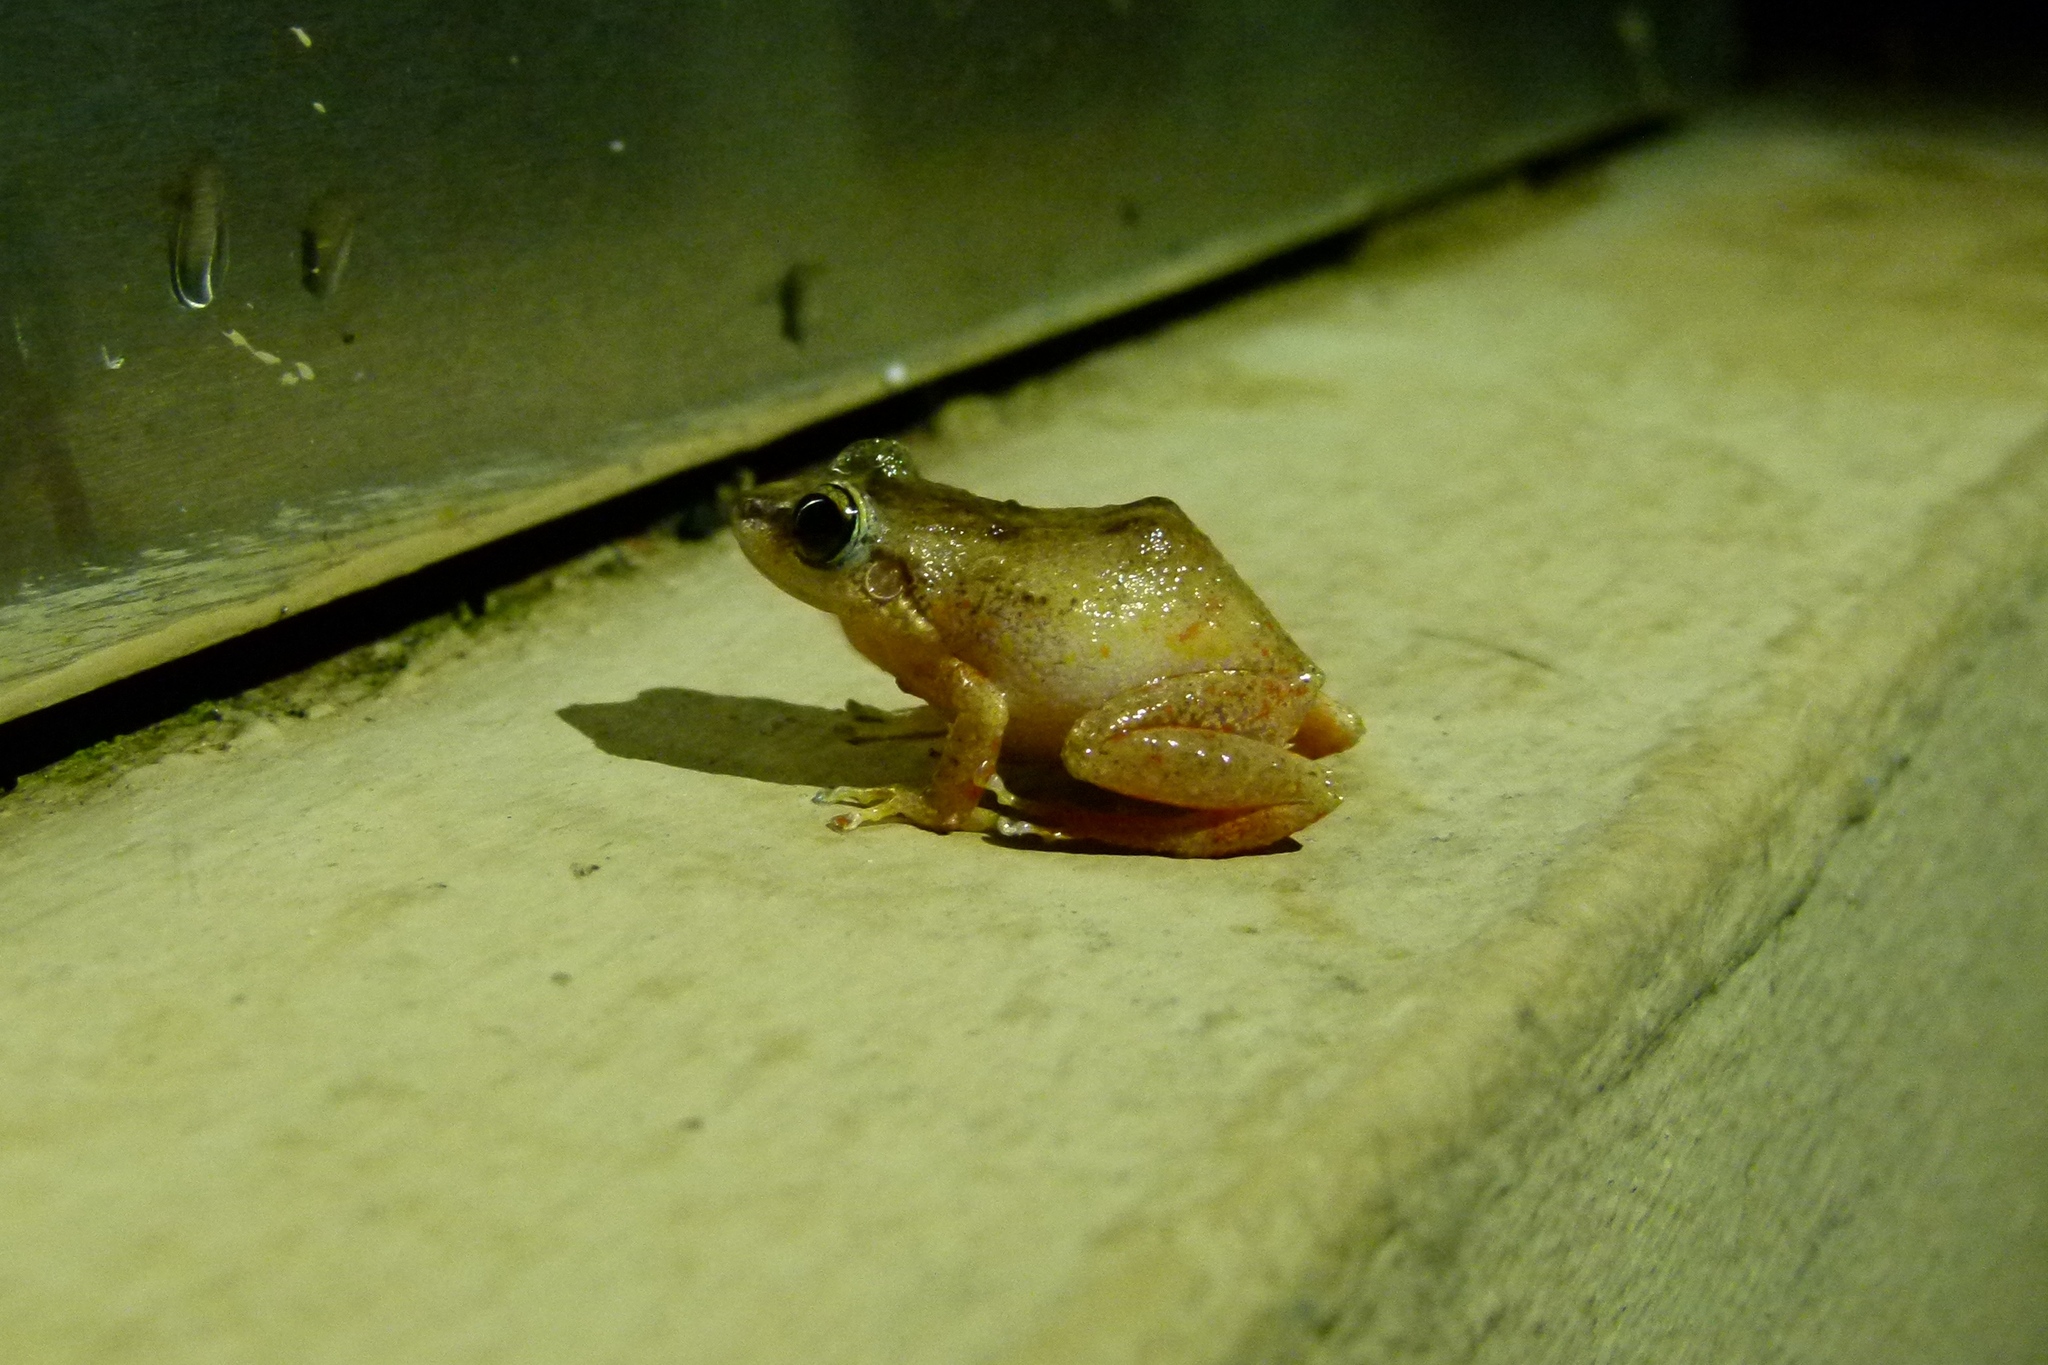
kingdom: Animalia
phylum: Chordata
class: Amphibia
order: Anura
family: Eleutherodactylidae
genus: Eleutherodactylus
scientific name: Eleutherodactylus coqui
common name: Coqui frog
